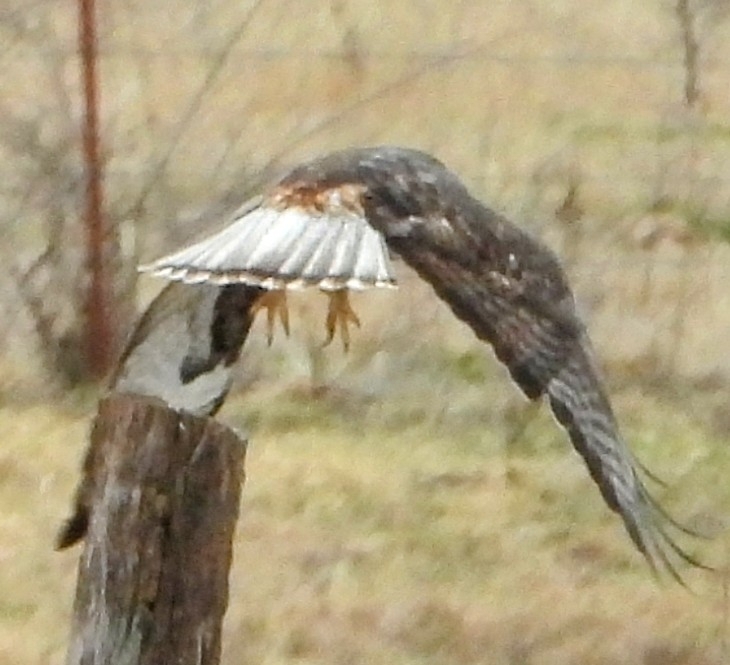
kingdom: Animalia
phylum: Chordata
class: Aves
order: Accipitriformes
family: Accipitridae
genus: Buteo
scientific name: Buteo jamaicensis
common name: Red-tailed hawk
